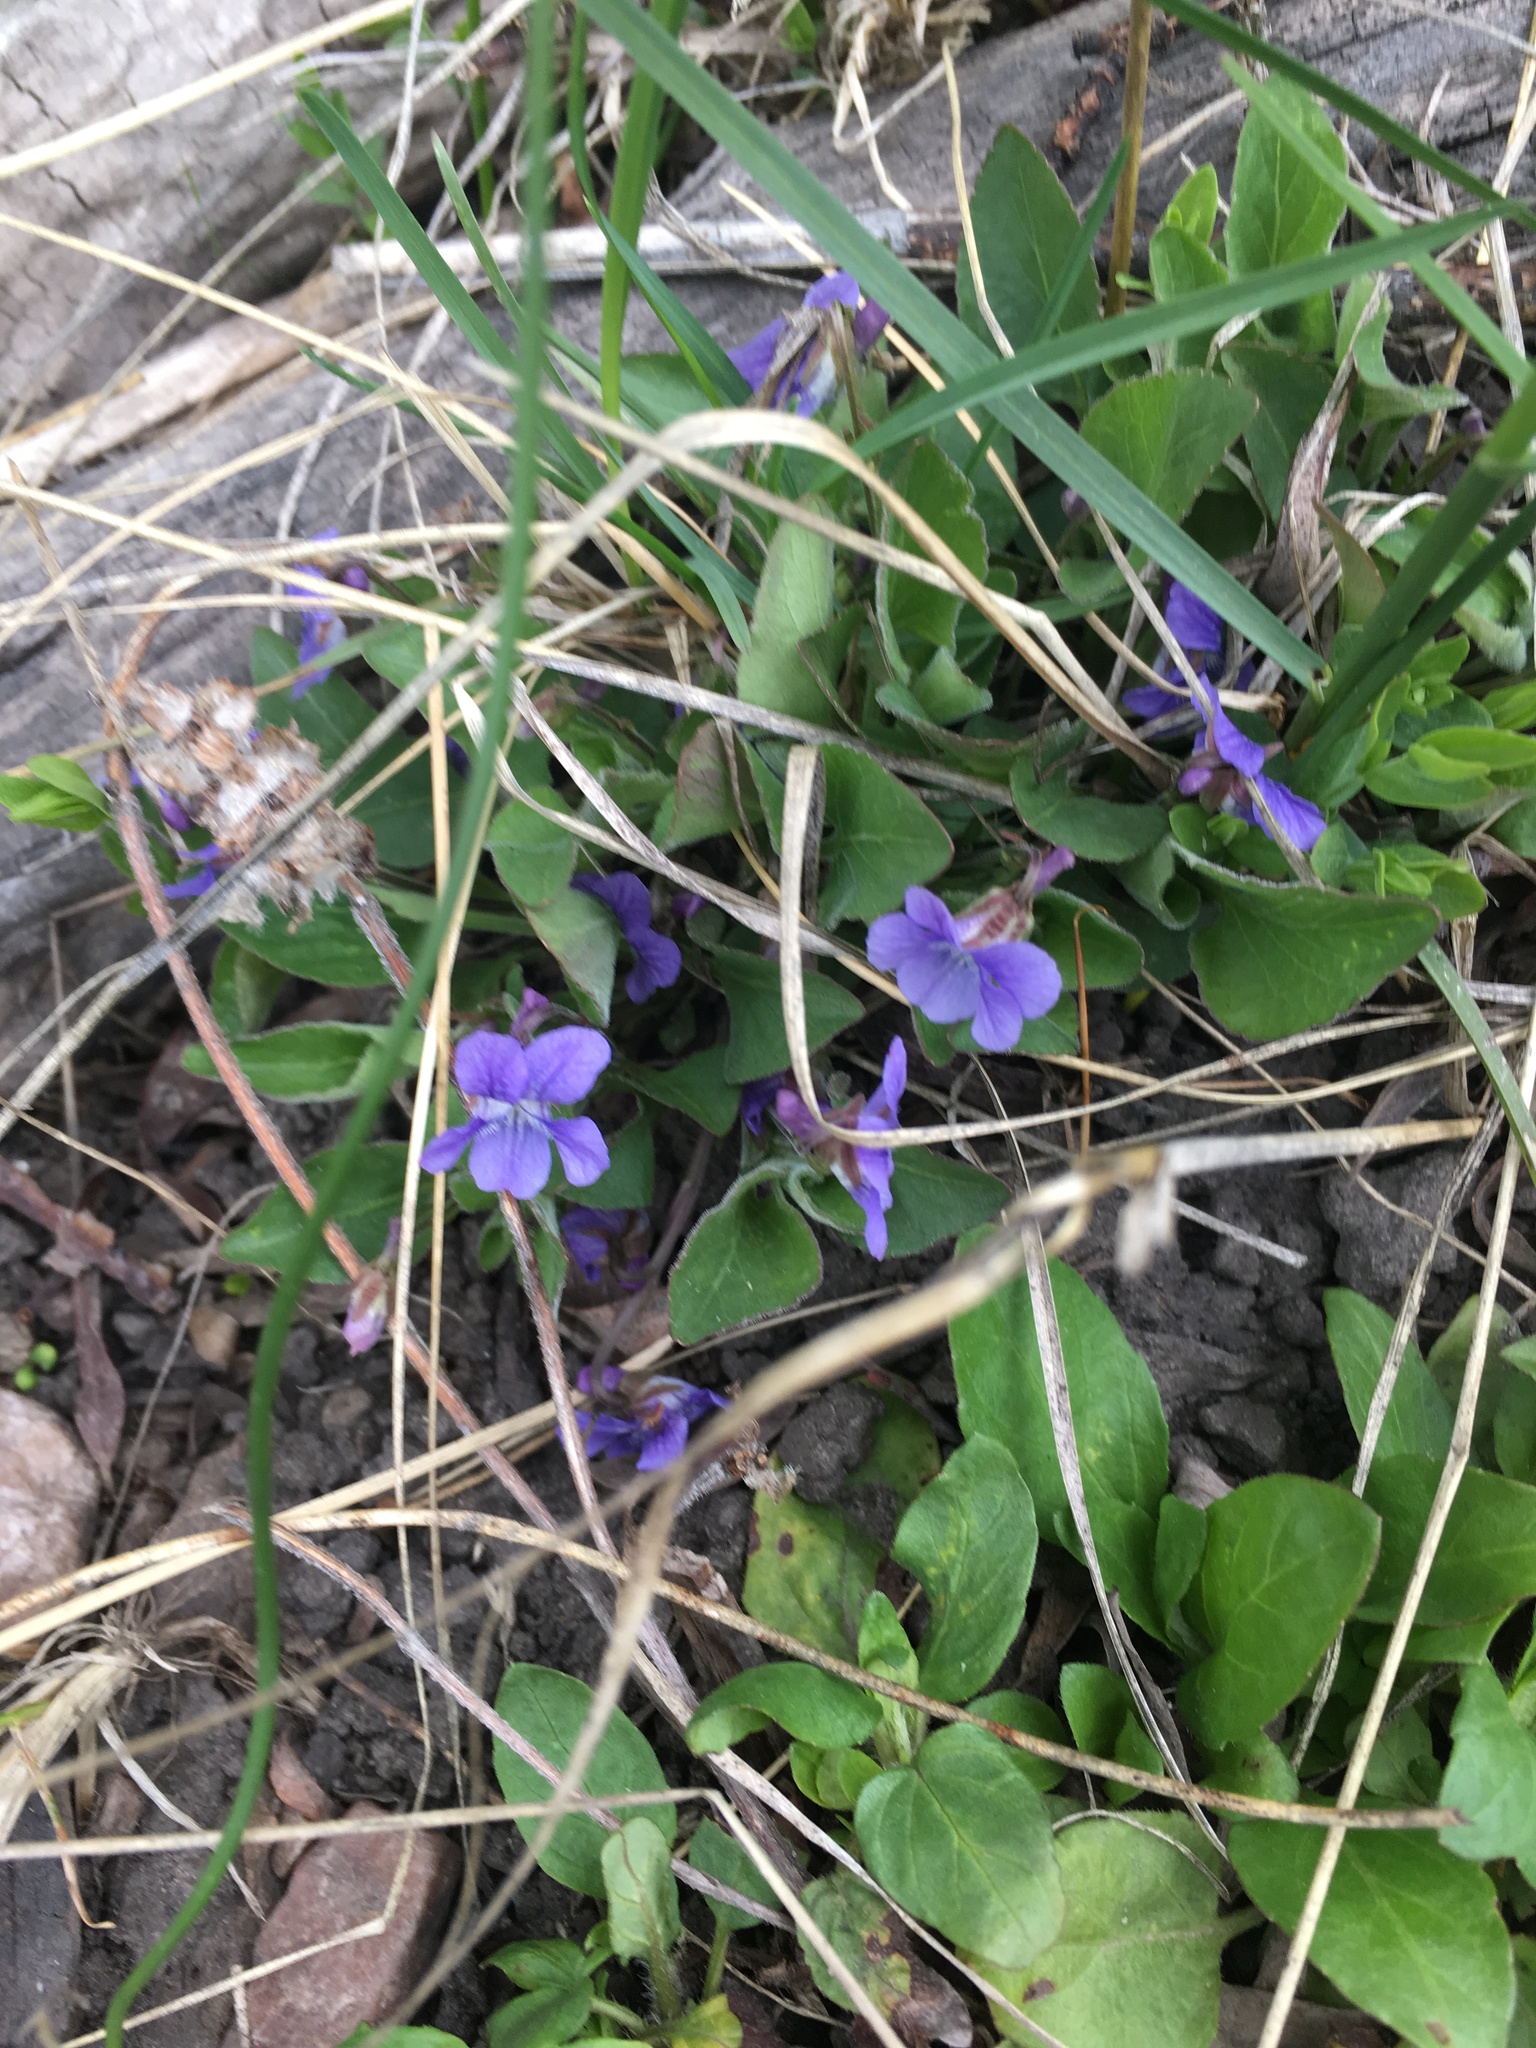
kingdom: Plantae
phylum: Tracheophyta
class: Magnoliopsida
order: Malpighiales
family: Violaceae
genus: Viola
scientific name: Viola adunca
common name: Sand violet
